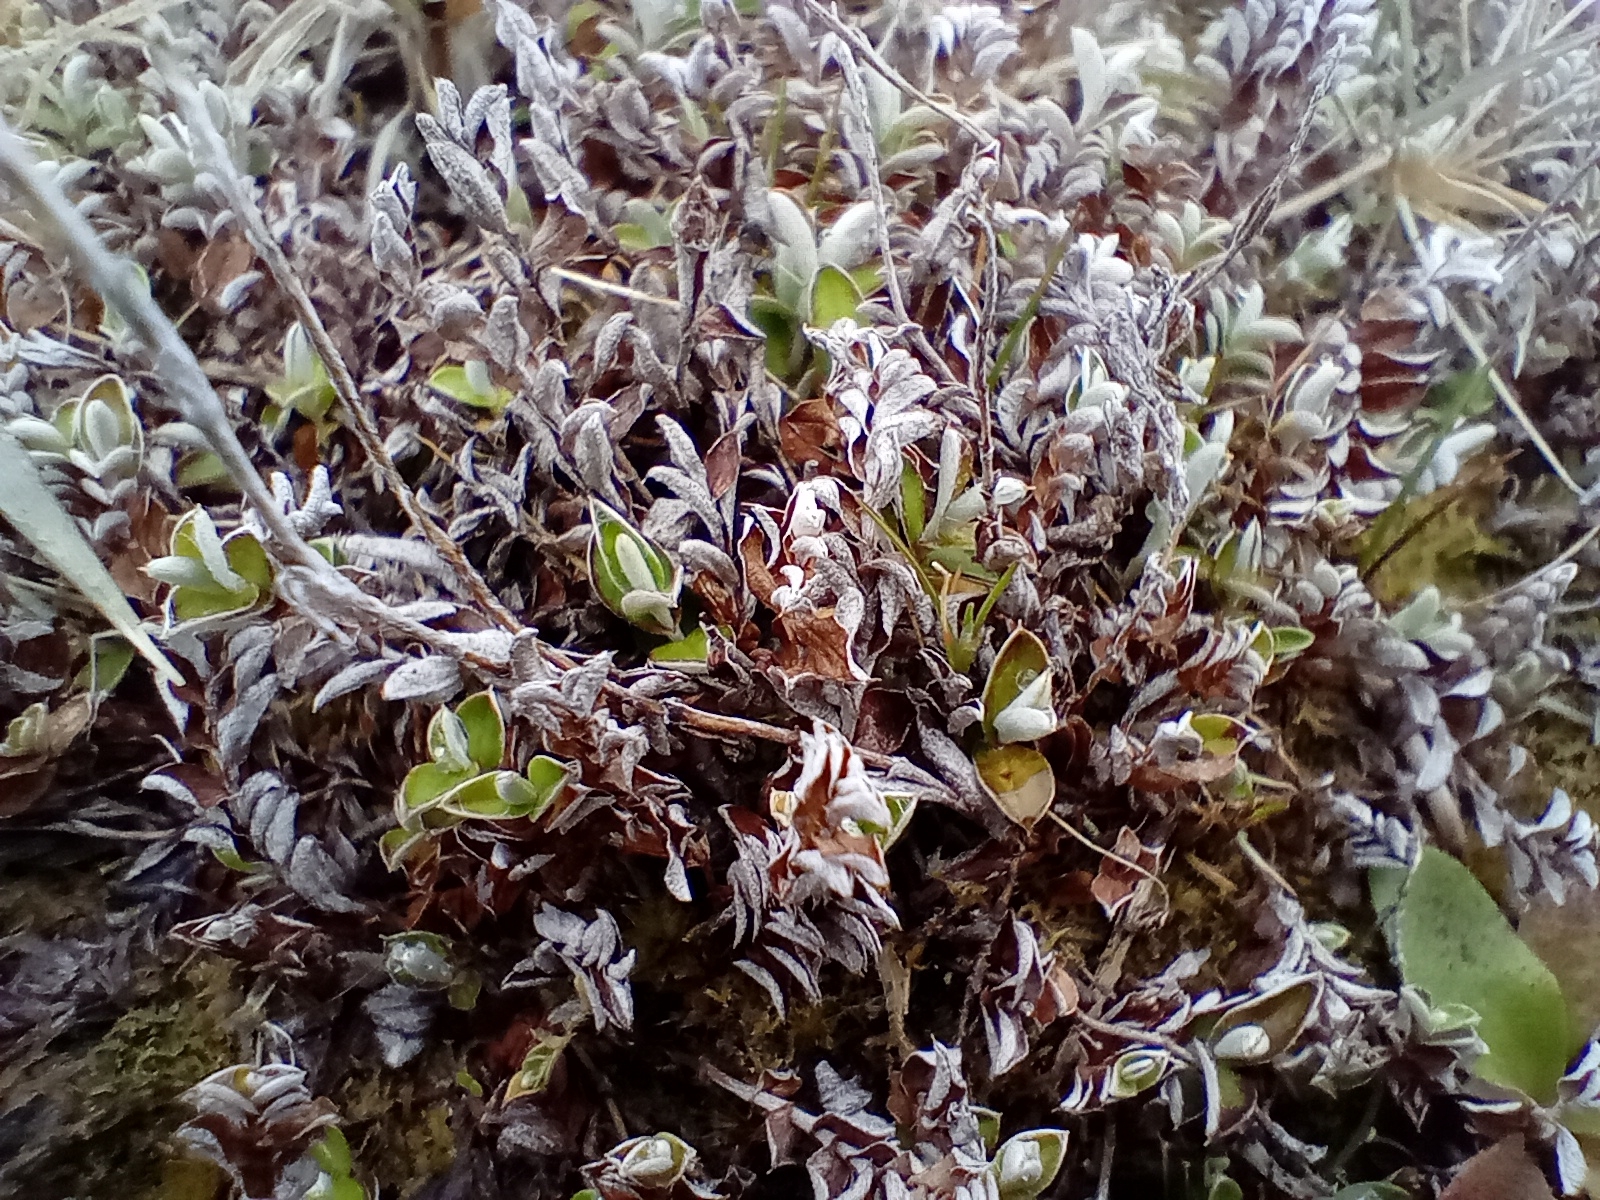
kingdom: Plantae
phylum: Tracheophyta
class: Magnoliopsida
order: Asterales
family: Asteraceae
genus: Helichrysum
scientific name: Helichrysum filicaule
